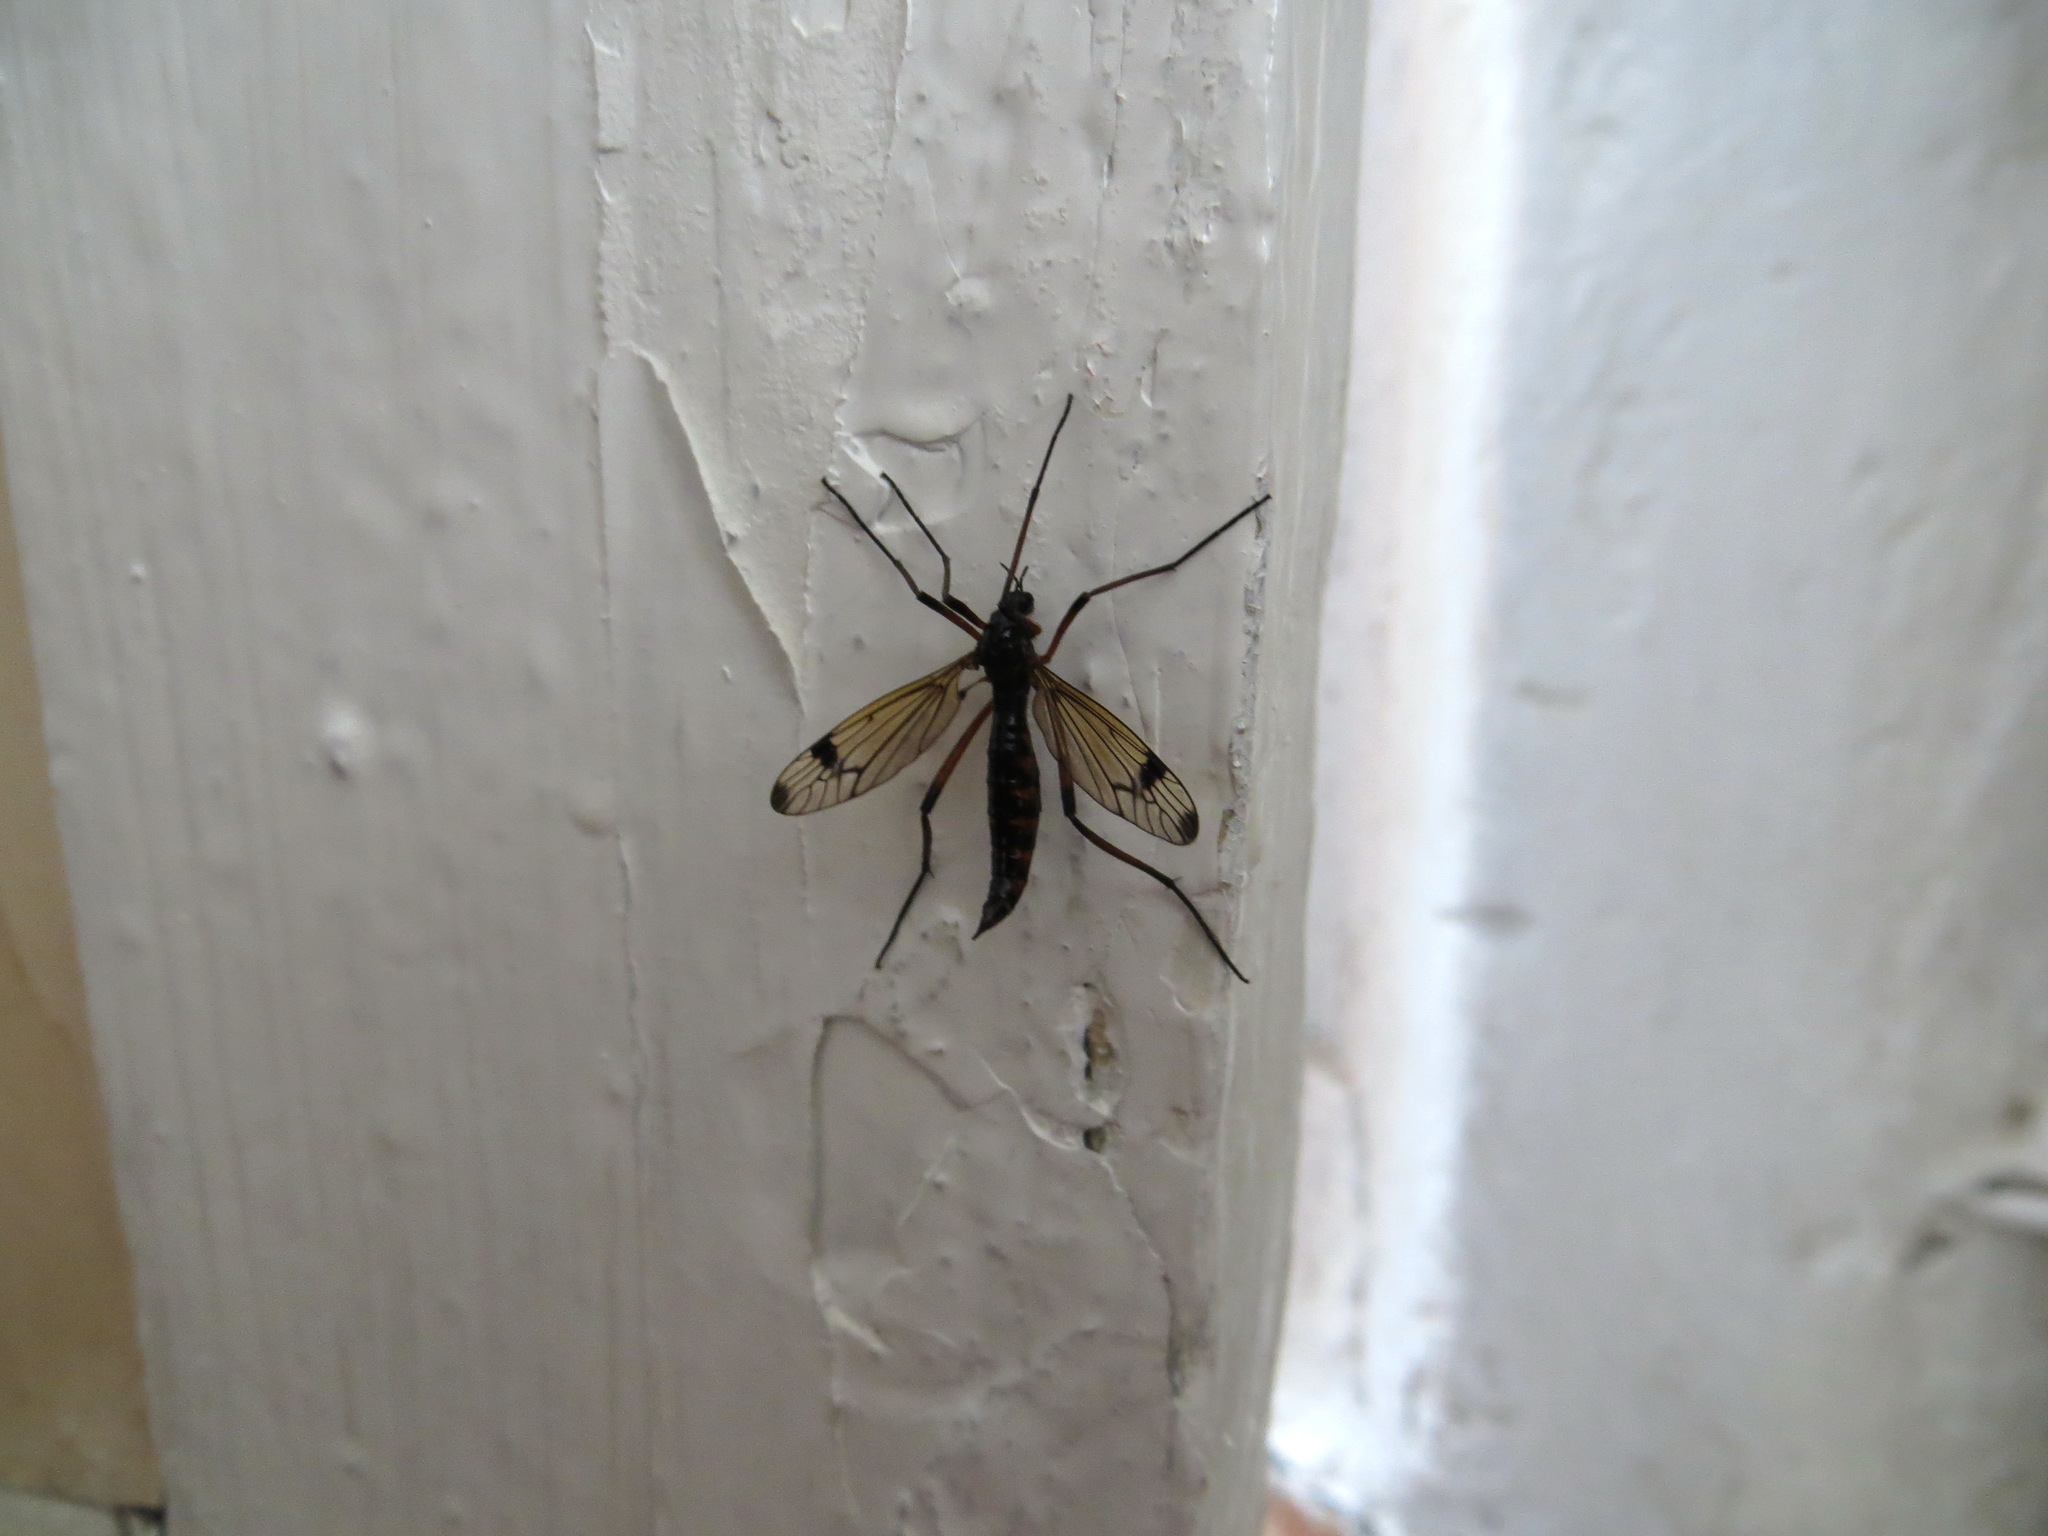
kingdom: Animalia
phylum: Arthropoda
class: Insecta
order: Diptera
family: Tipulidae
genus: Dictenidia
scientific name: Dictenidia bimaculata
